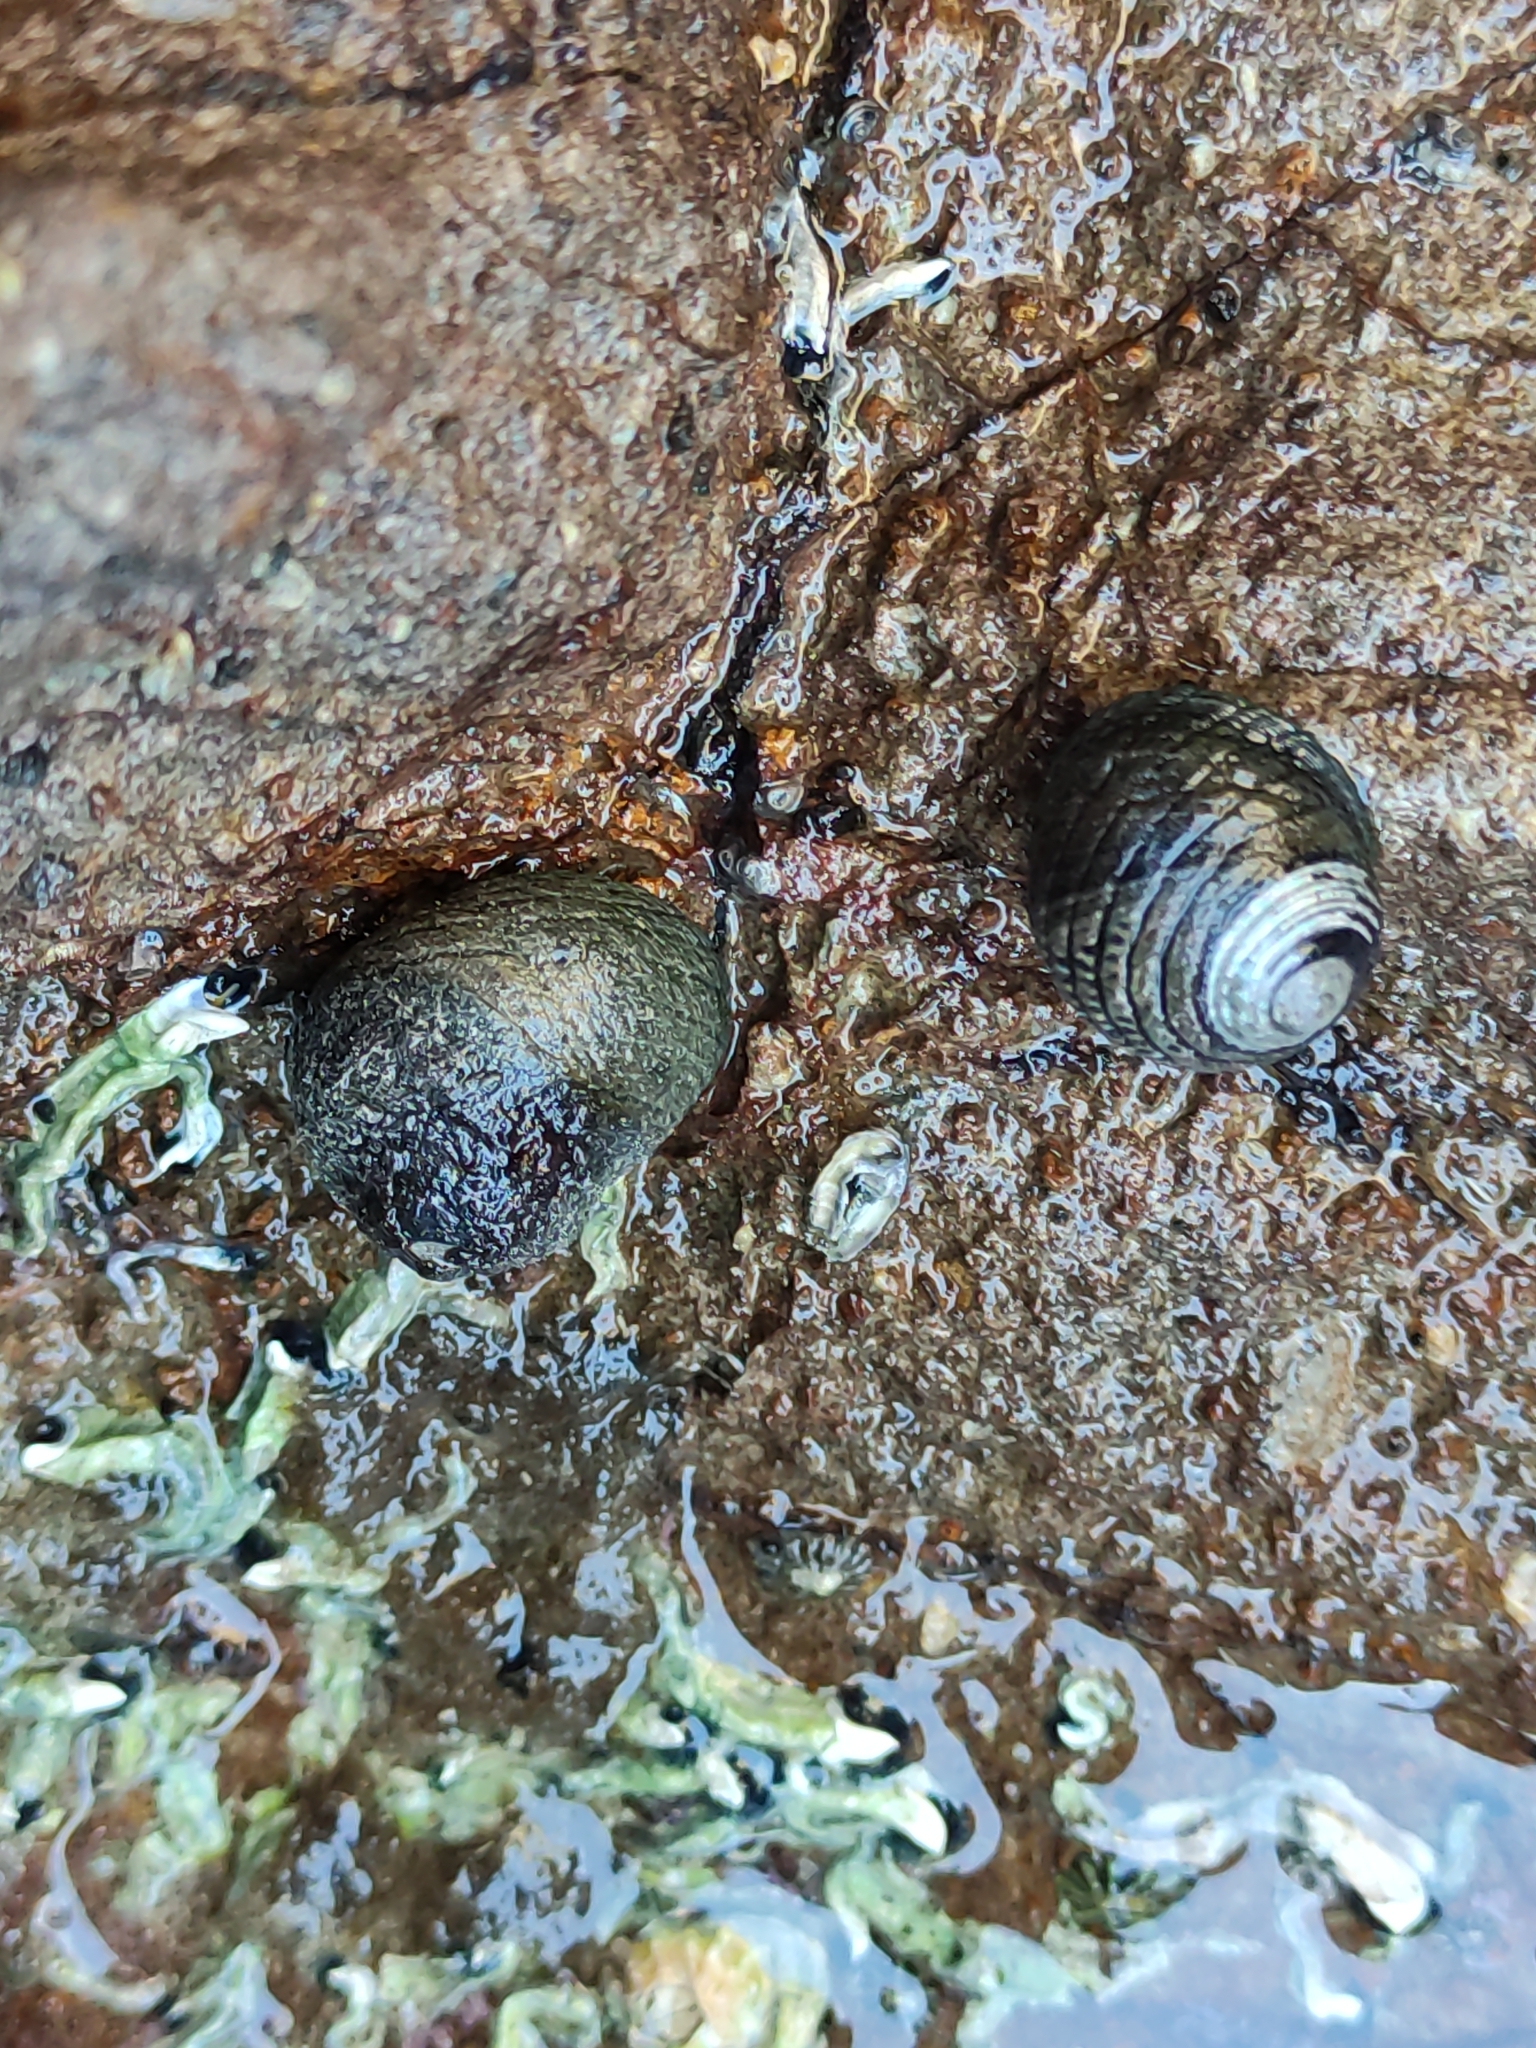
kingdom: Animalia
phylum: Mollusca
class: Gastropoda
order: Trochida
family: Trochidae
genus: Diloma
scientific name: Diloma aethiops
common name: Scorched monodont
